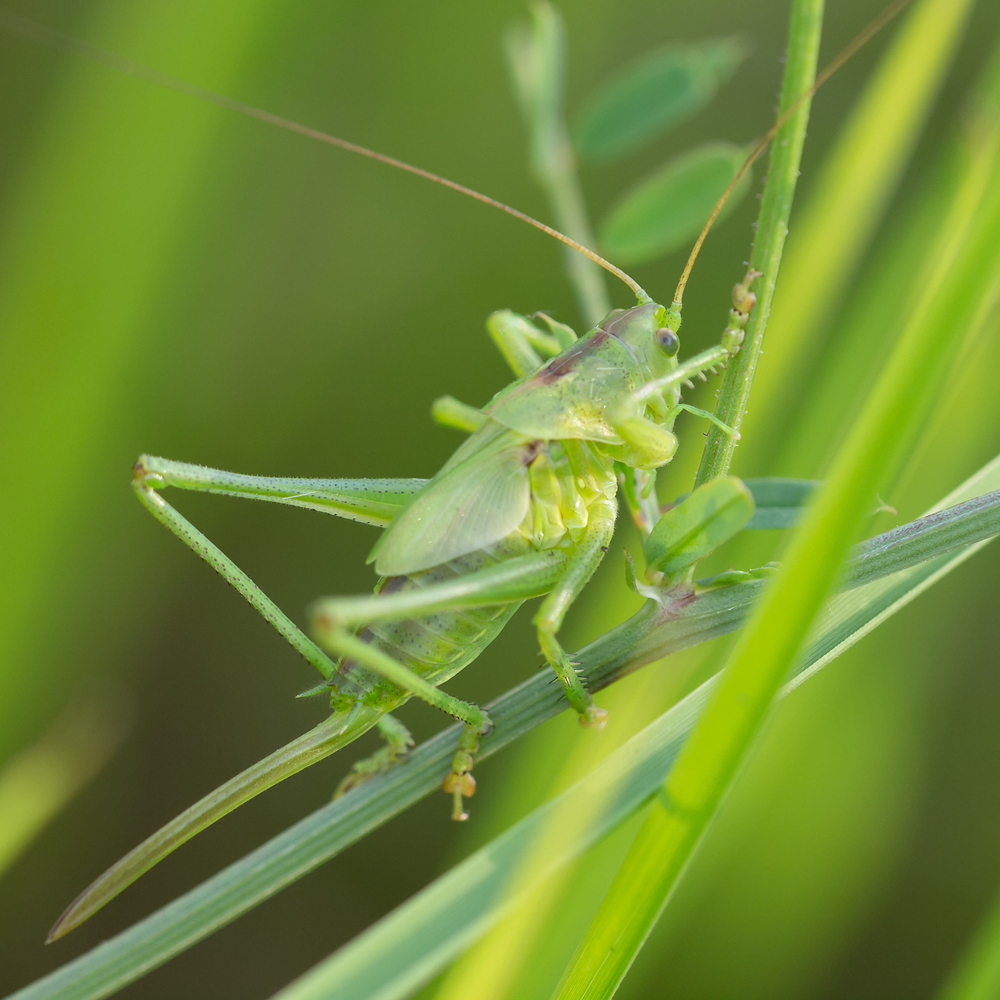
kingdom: Animalia
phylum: Arthropoda
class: Insecta
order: Orthoptera
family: Tettigoniidae
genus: Tettigonia
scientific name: Tettigonia viridissima
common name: Great green bush-cricket
